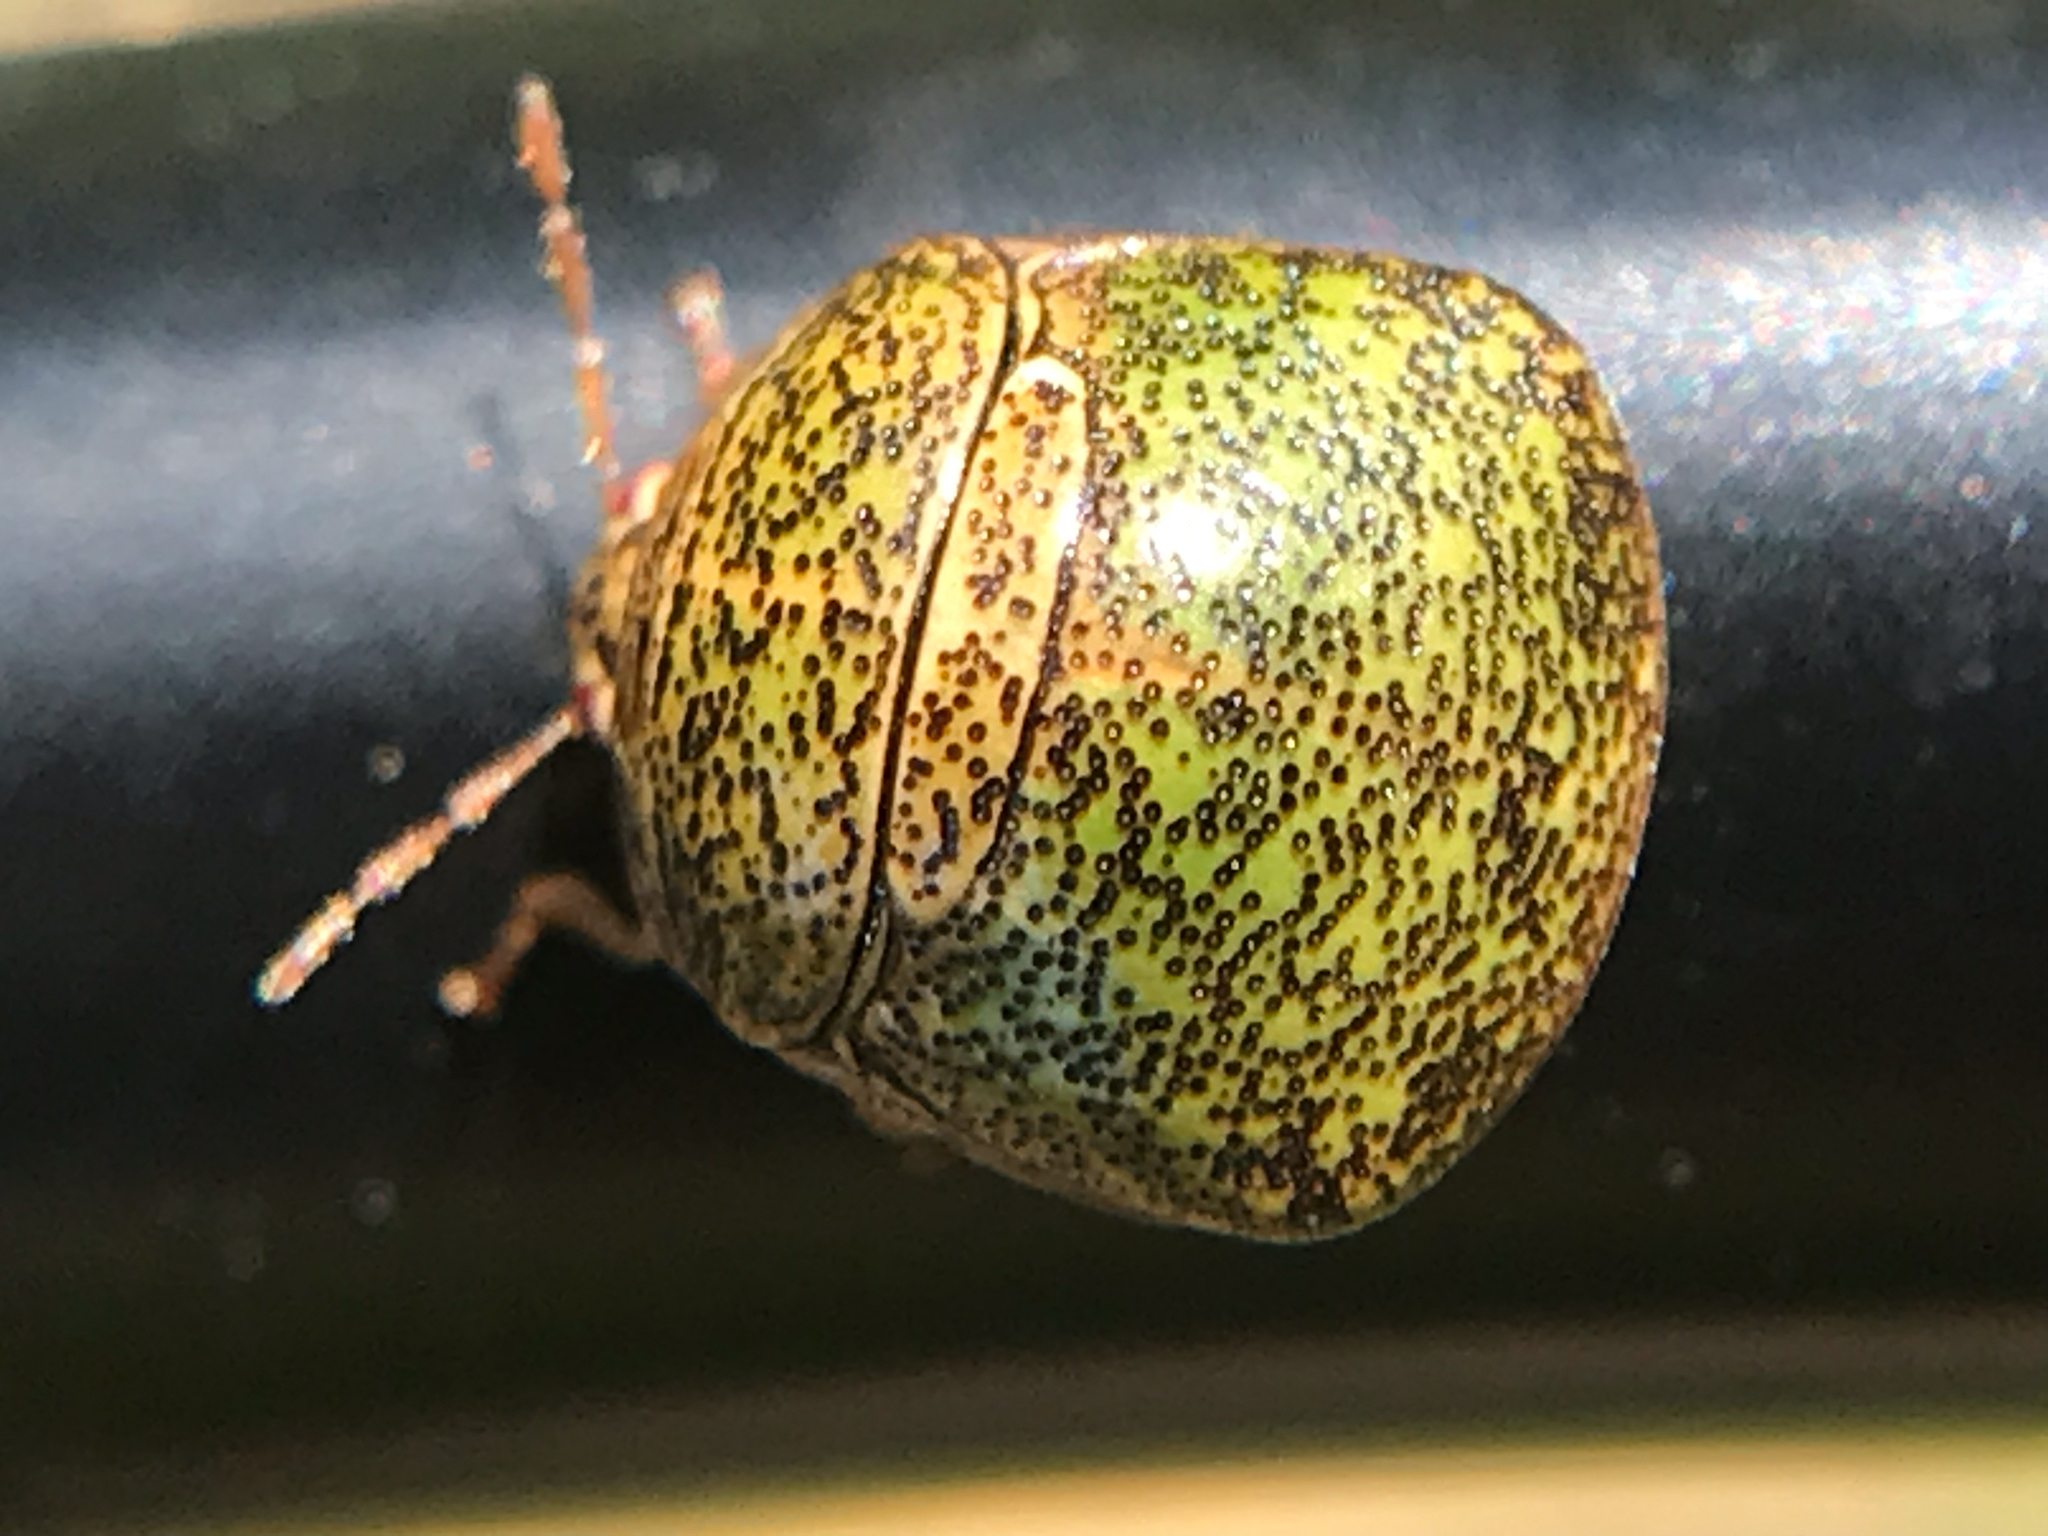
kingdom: Animalia
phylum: Arthropoda
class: Insecta
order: Hemiptera
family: Plataspidae
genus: Megacopta
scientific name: Megacopta cribraria
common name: Bean plataspid
